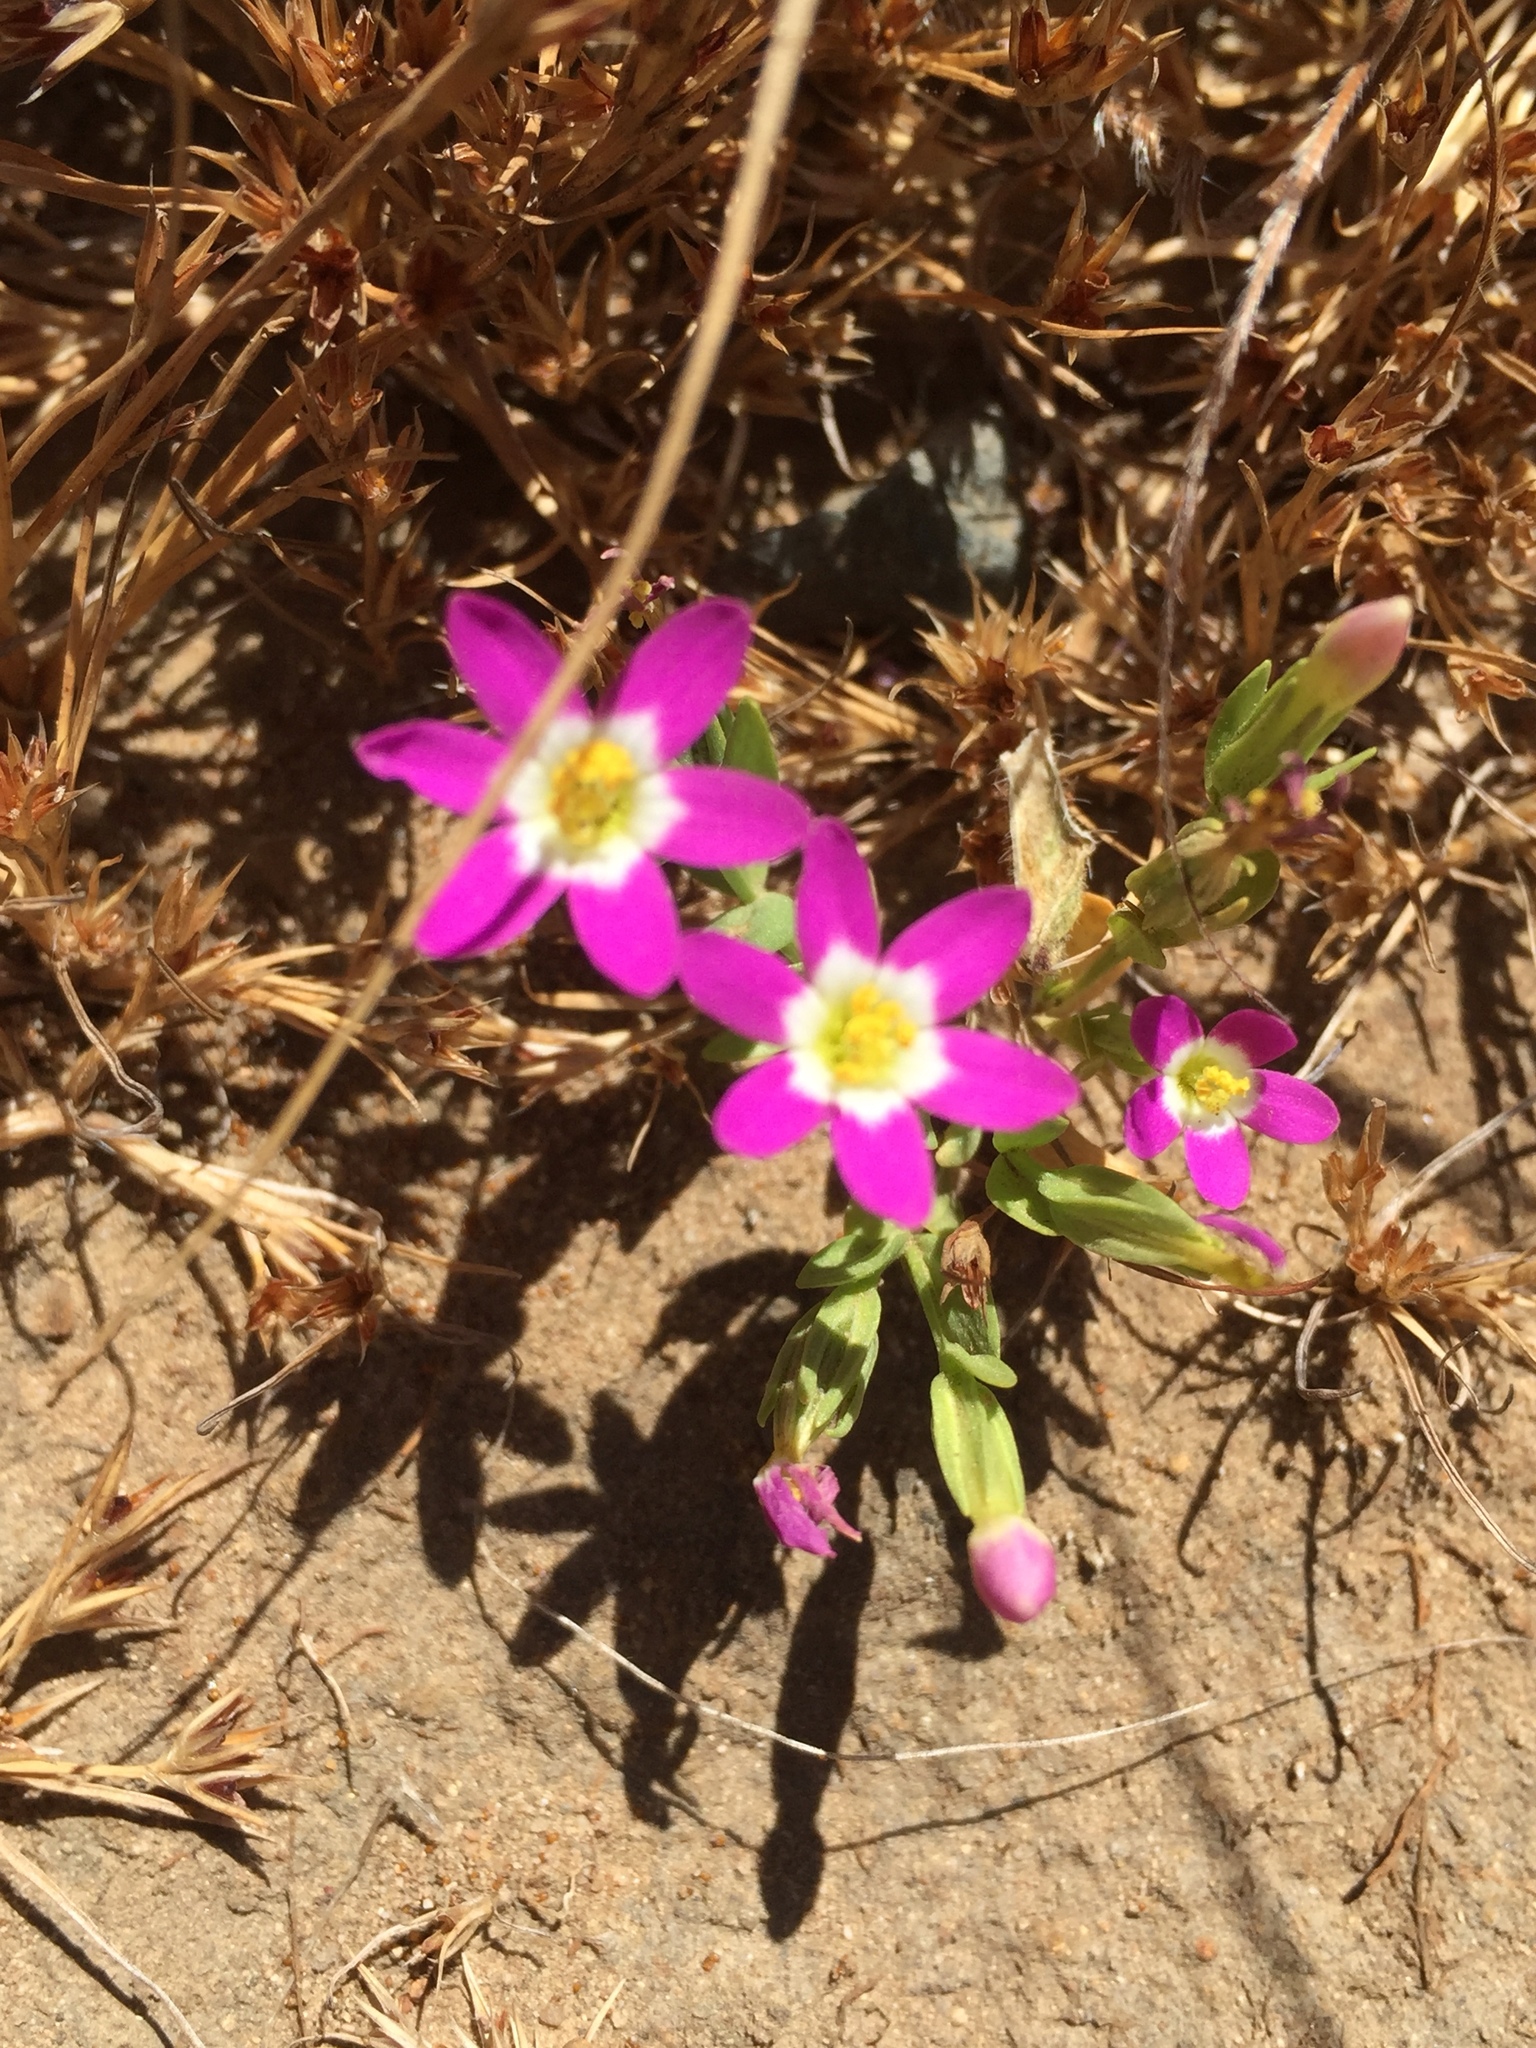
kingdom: Plantae
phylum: Tracheophyta
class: Magnoliopsida
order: Gentianales
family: Gentianaceae
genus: Zeltnera
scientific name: Zeltnera davyi
